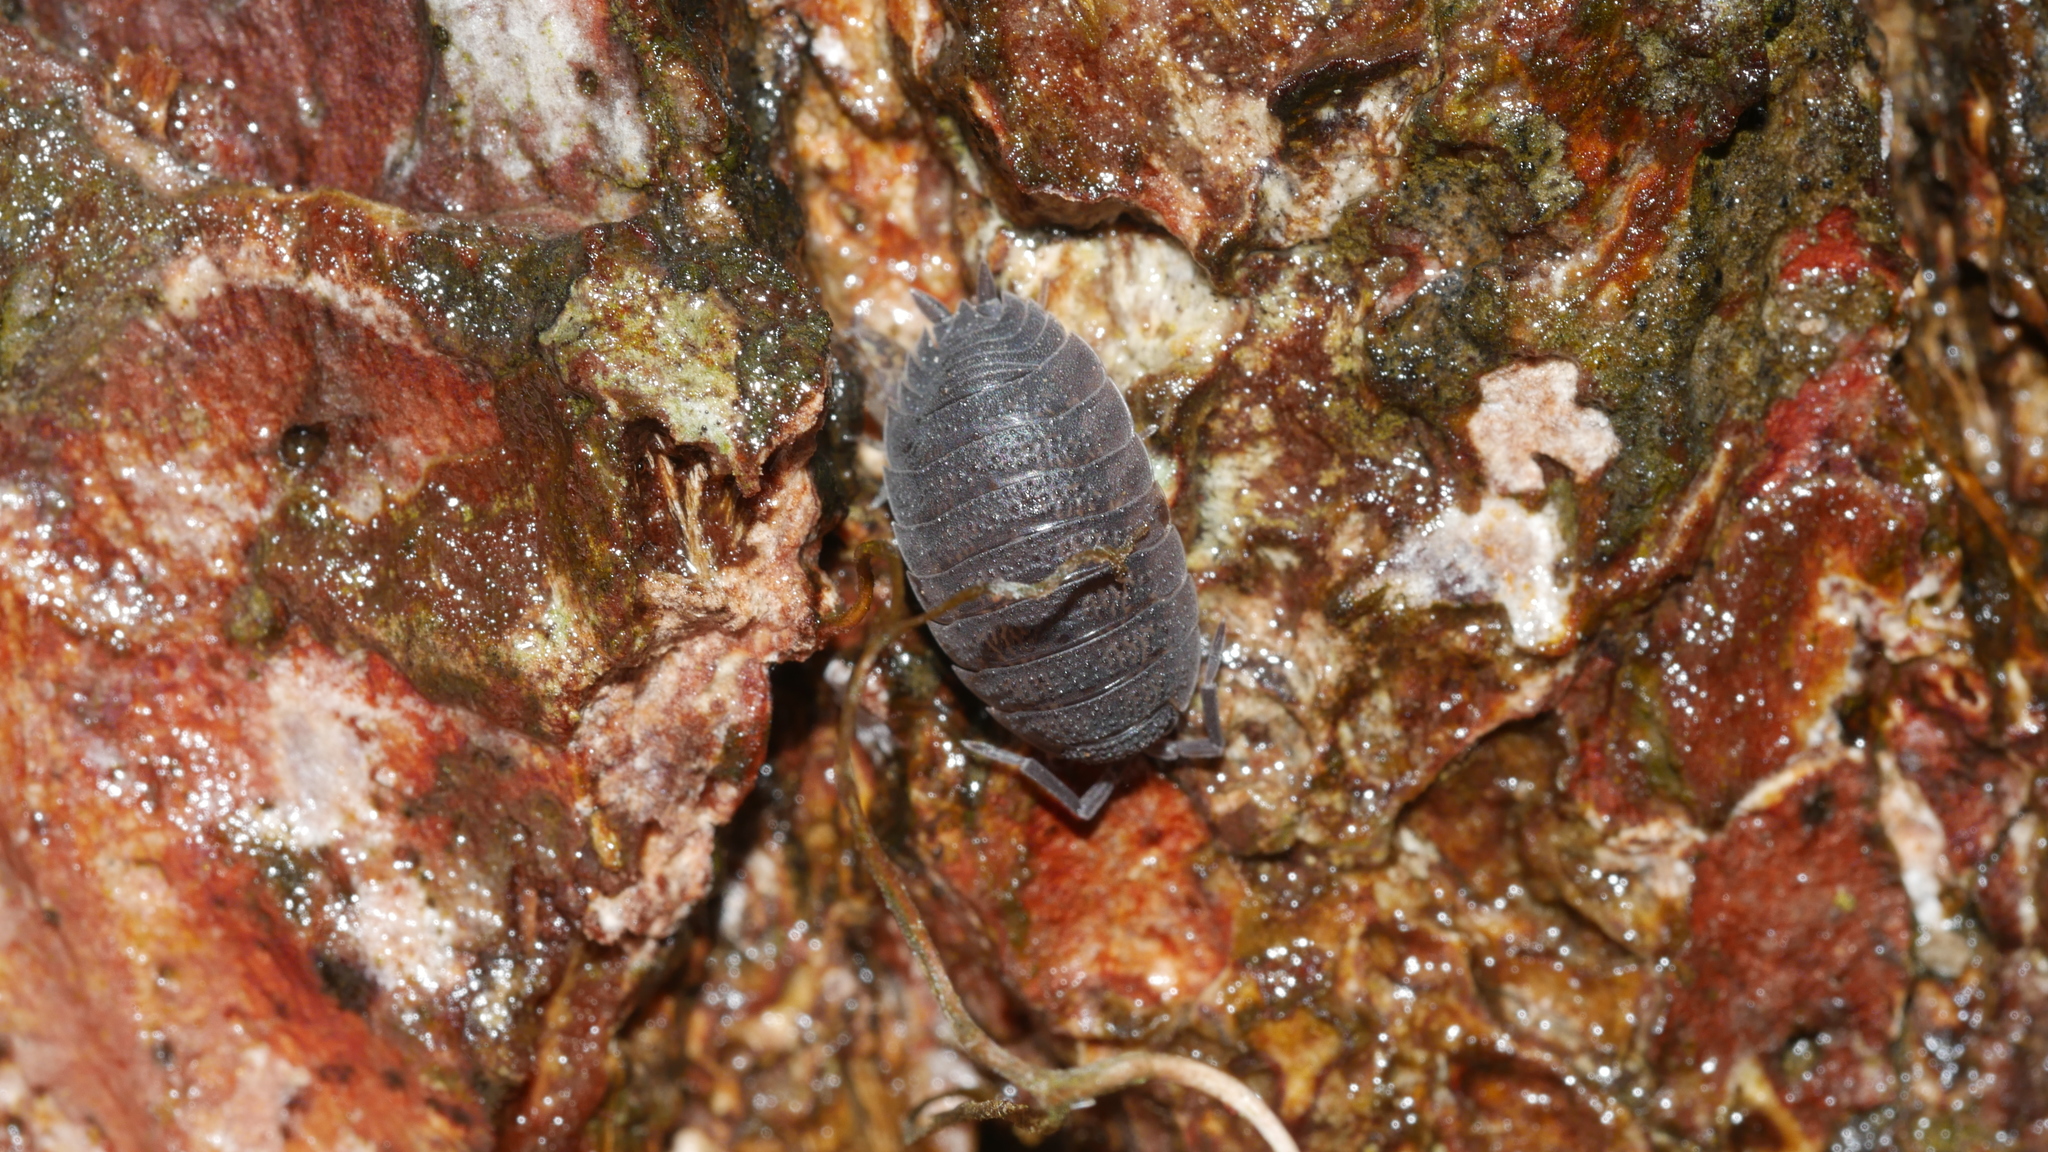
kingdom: Animalia
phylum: Arthropoda
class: Malacostraca
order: Isopoda
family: Porcellionidae
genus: Porcellio
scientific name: Porcellio scaber
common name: Common rough woodlouse
